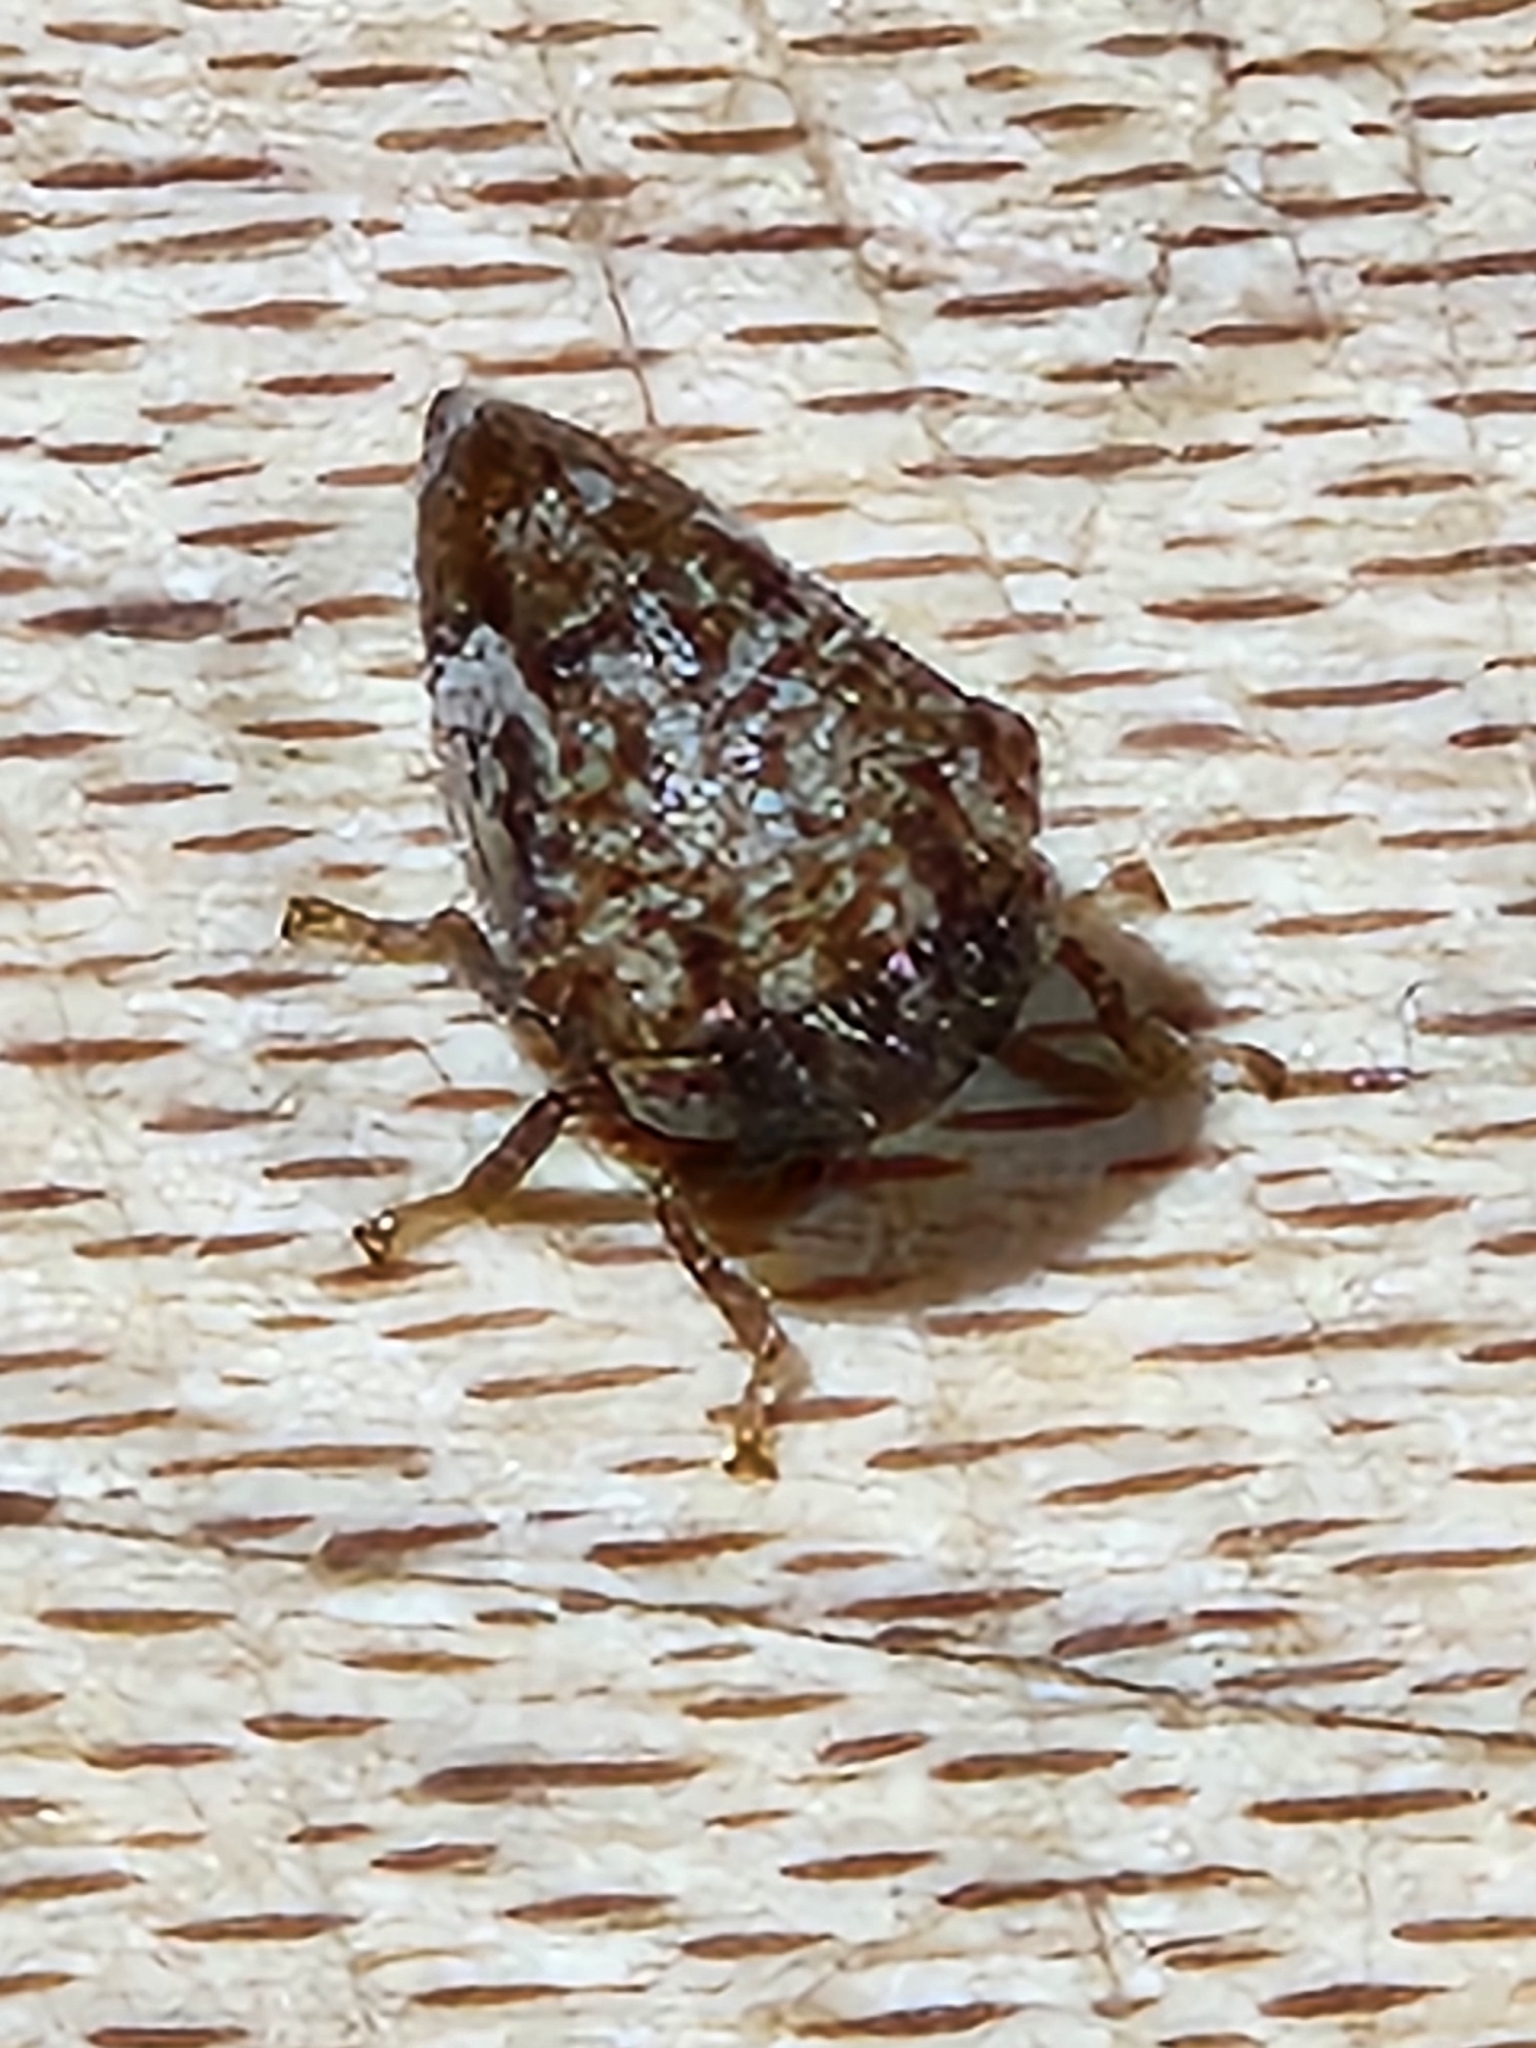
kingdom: Animalia
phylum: Arthropoda
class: Insecta
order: Hemiptera
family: Membracidae
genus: Vanduzea
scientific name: Vanduzea segmentata
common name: Membracid bug
